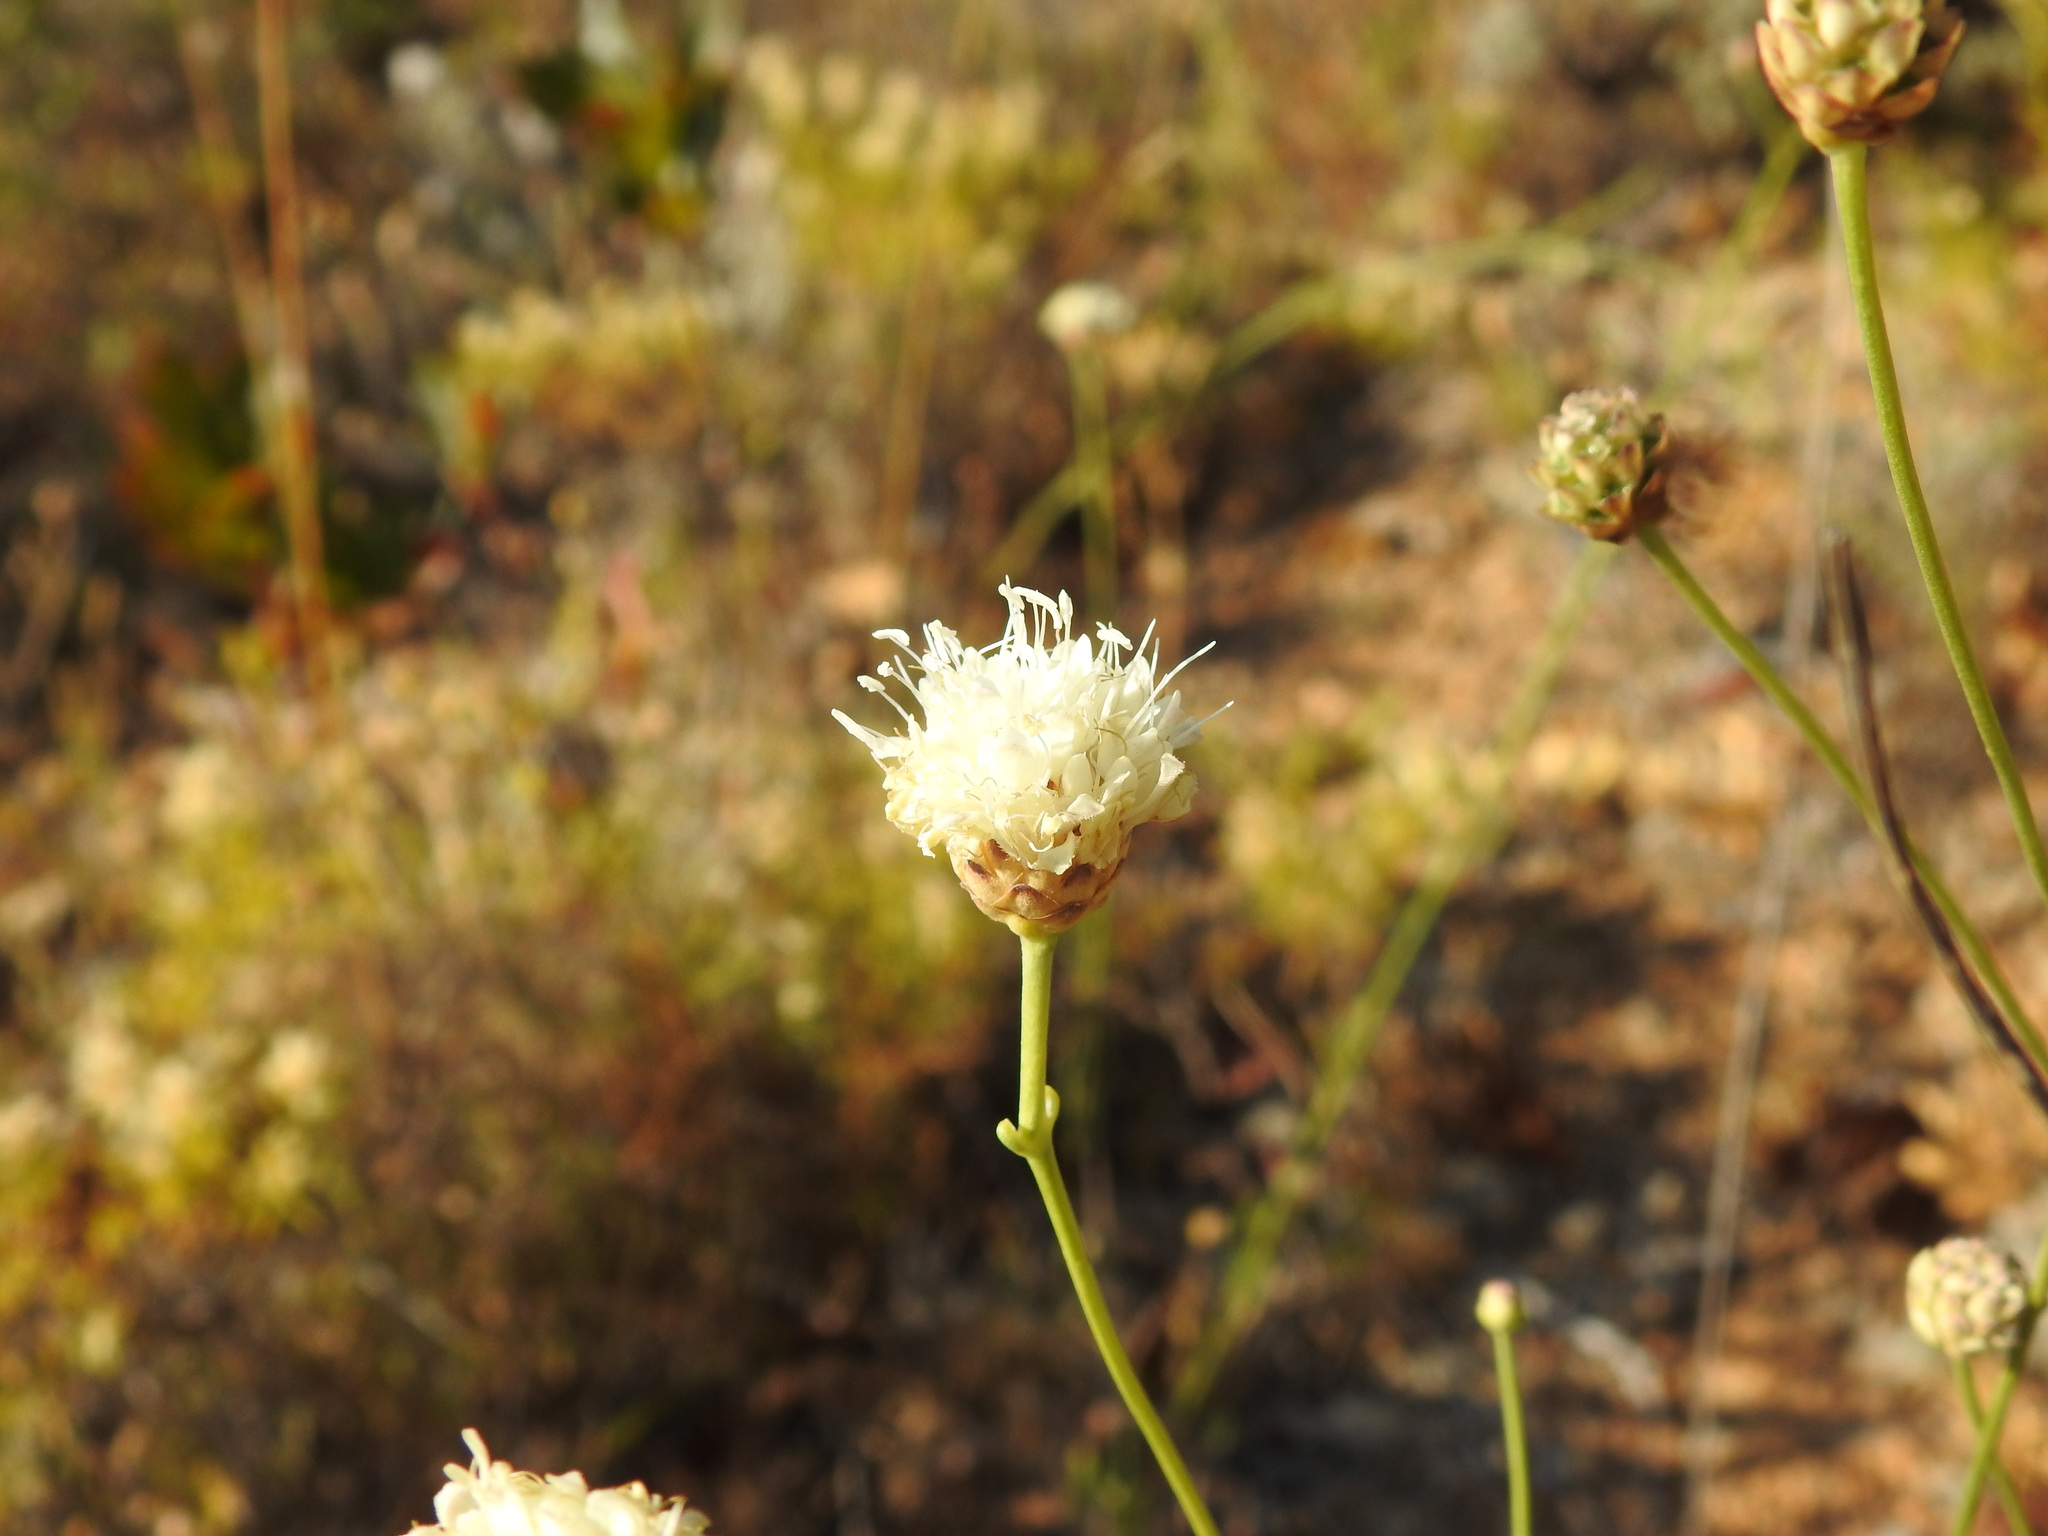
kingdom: Plantae
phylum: Tracheophyta
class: Magnoliopsida
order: Dipsacales
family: Caprifoliaceae
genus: Cephalaria
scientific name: Cephalaria leucantha
